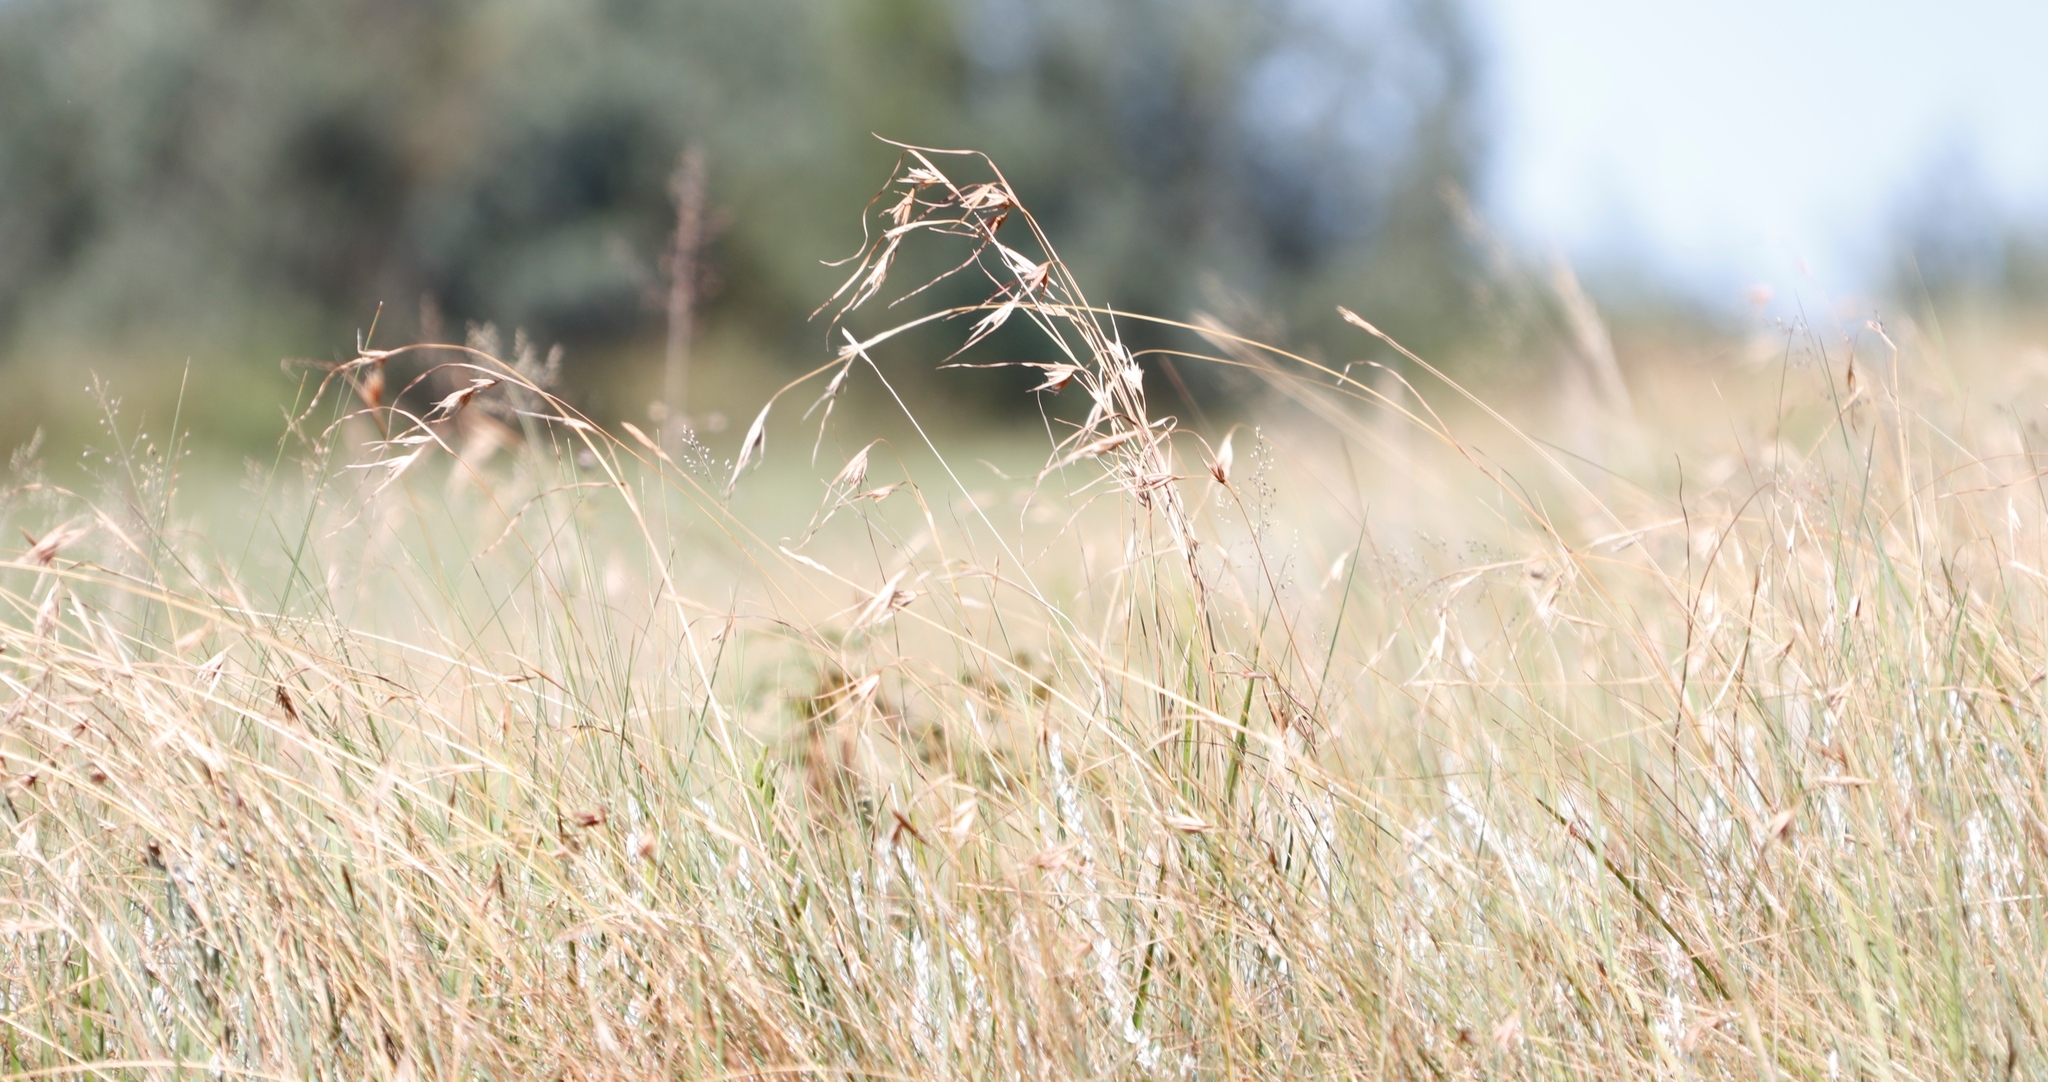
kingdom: Plantae
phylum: Tracheophyta
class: Liliopsida
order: Poales
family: Poaceae
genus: Themeda
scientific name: Themeda triandra
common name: Kangaroo grass
